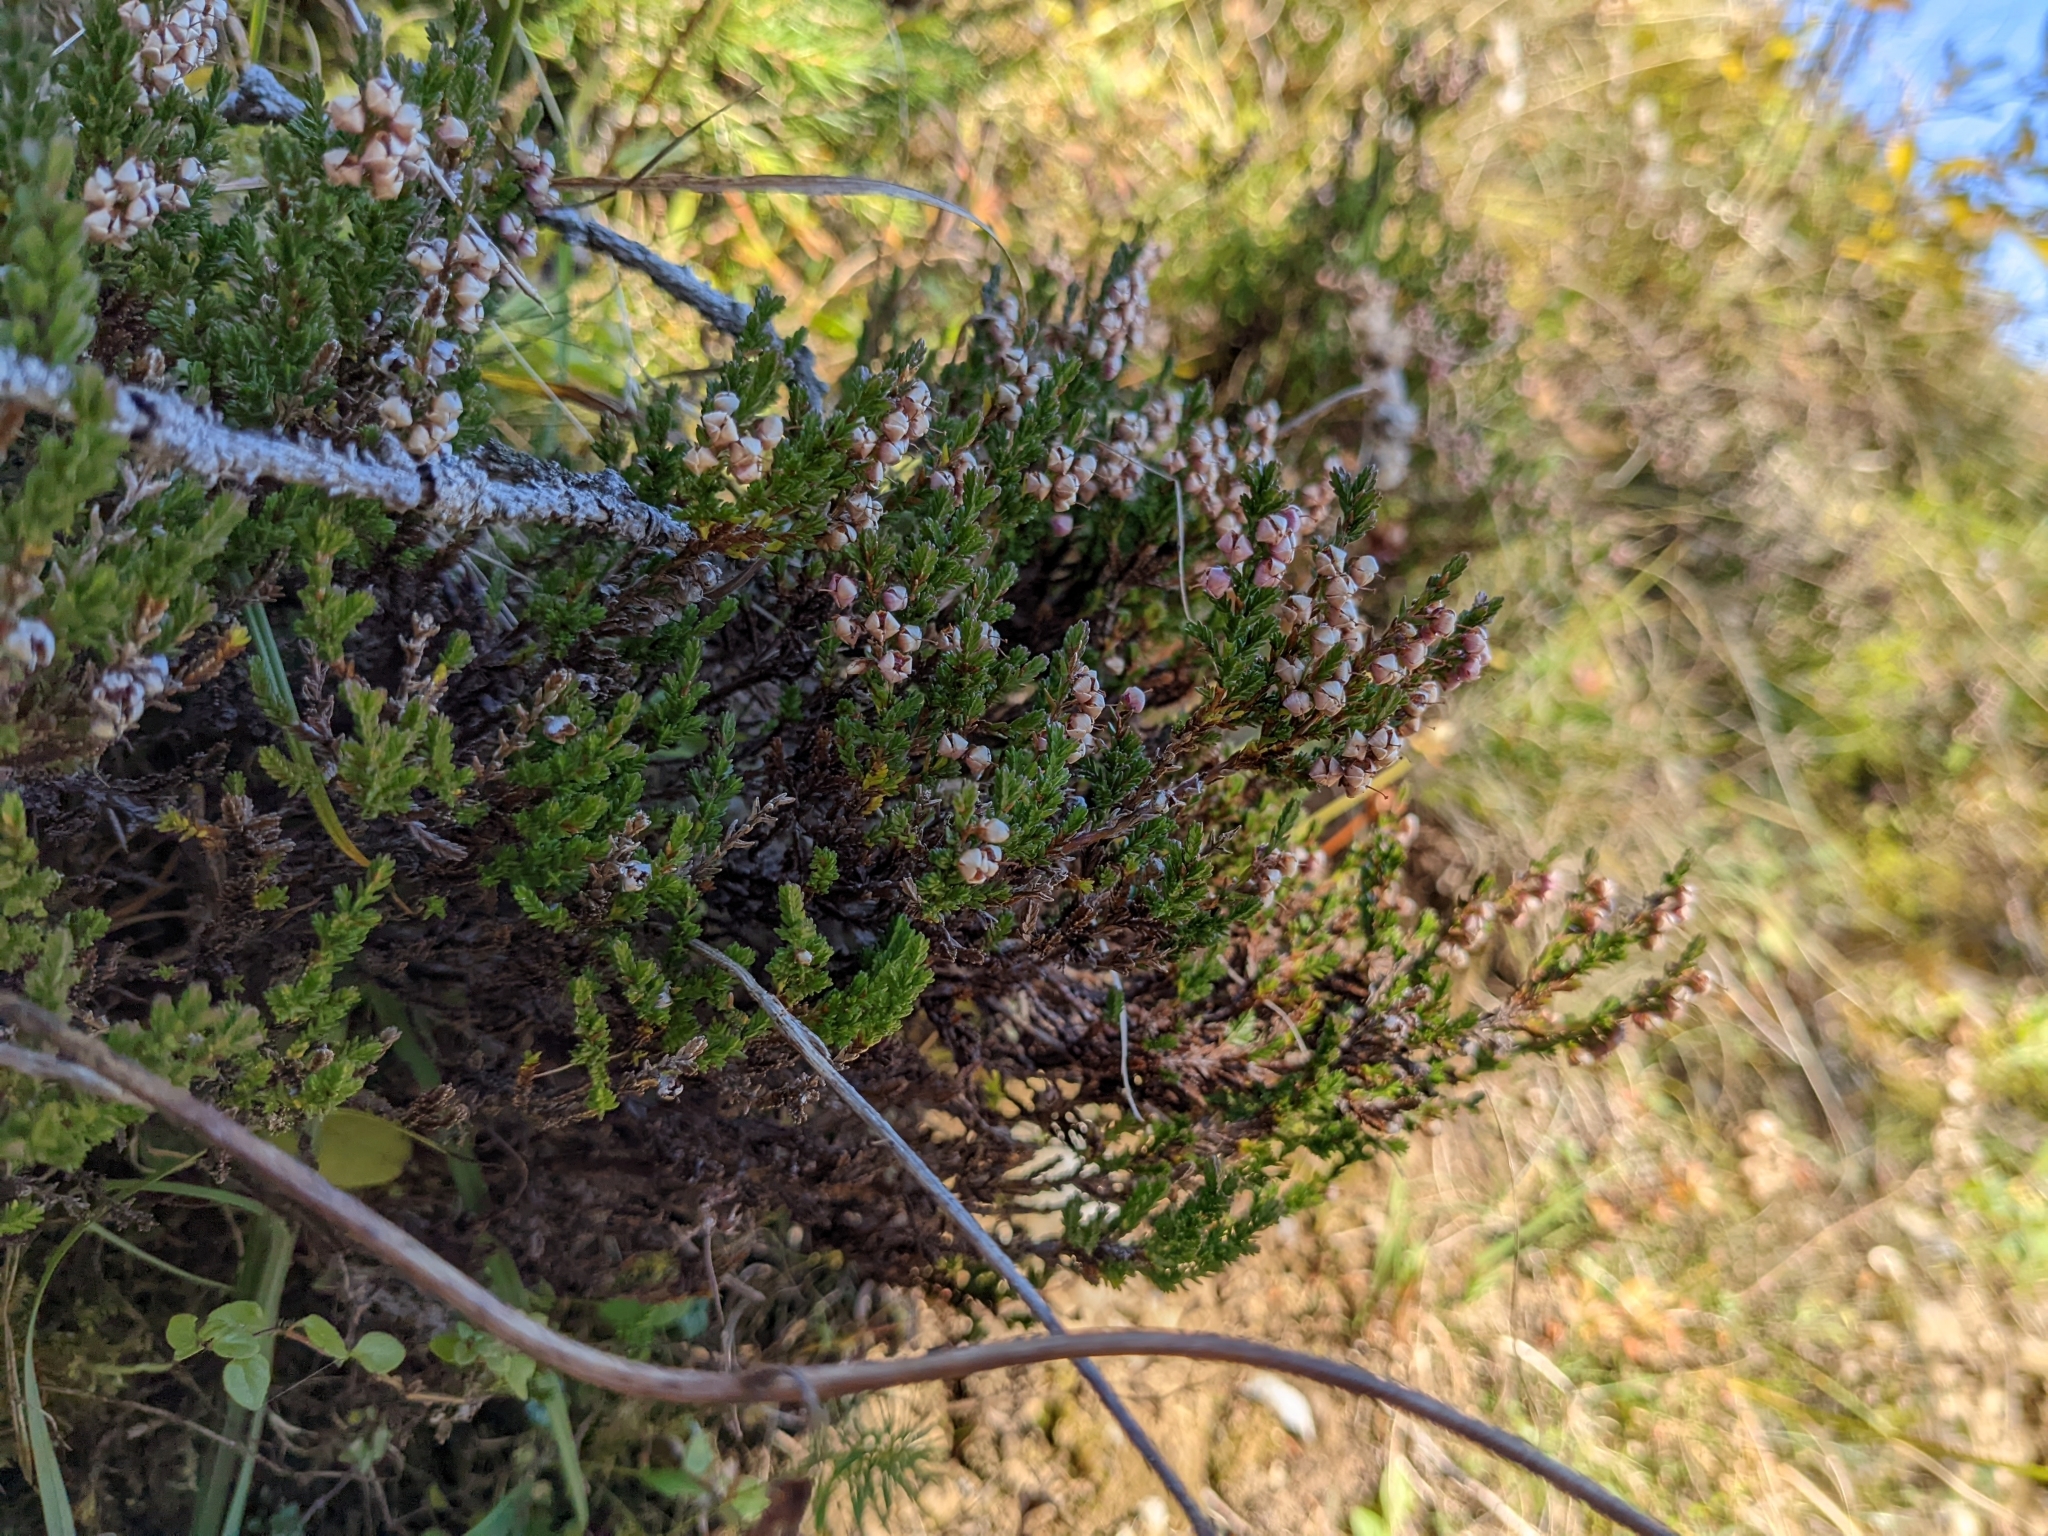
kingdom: Plantae
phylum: Tracheophyta
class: Magnoliopsida
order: Ericales
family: Ericaceae
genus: Calluna
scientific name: Calluna vulgaris
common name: Heather
